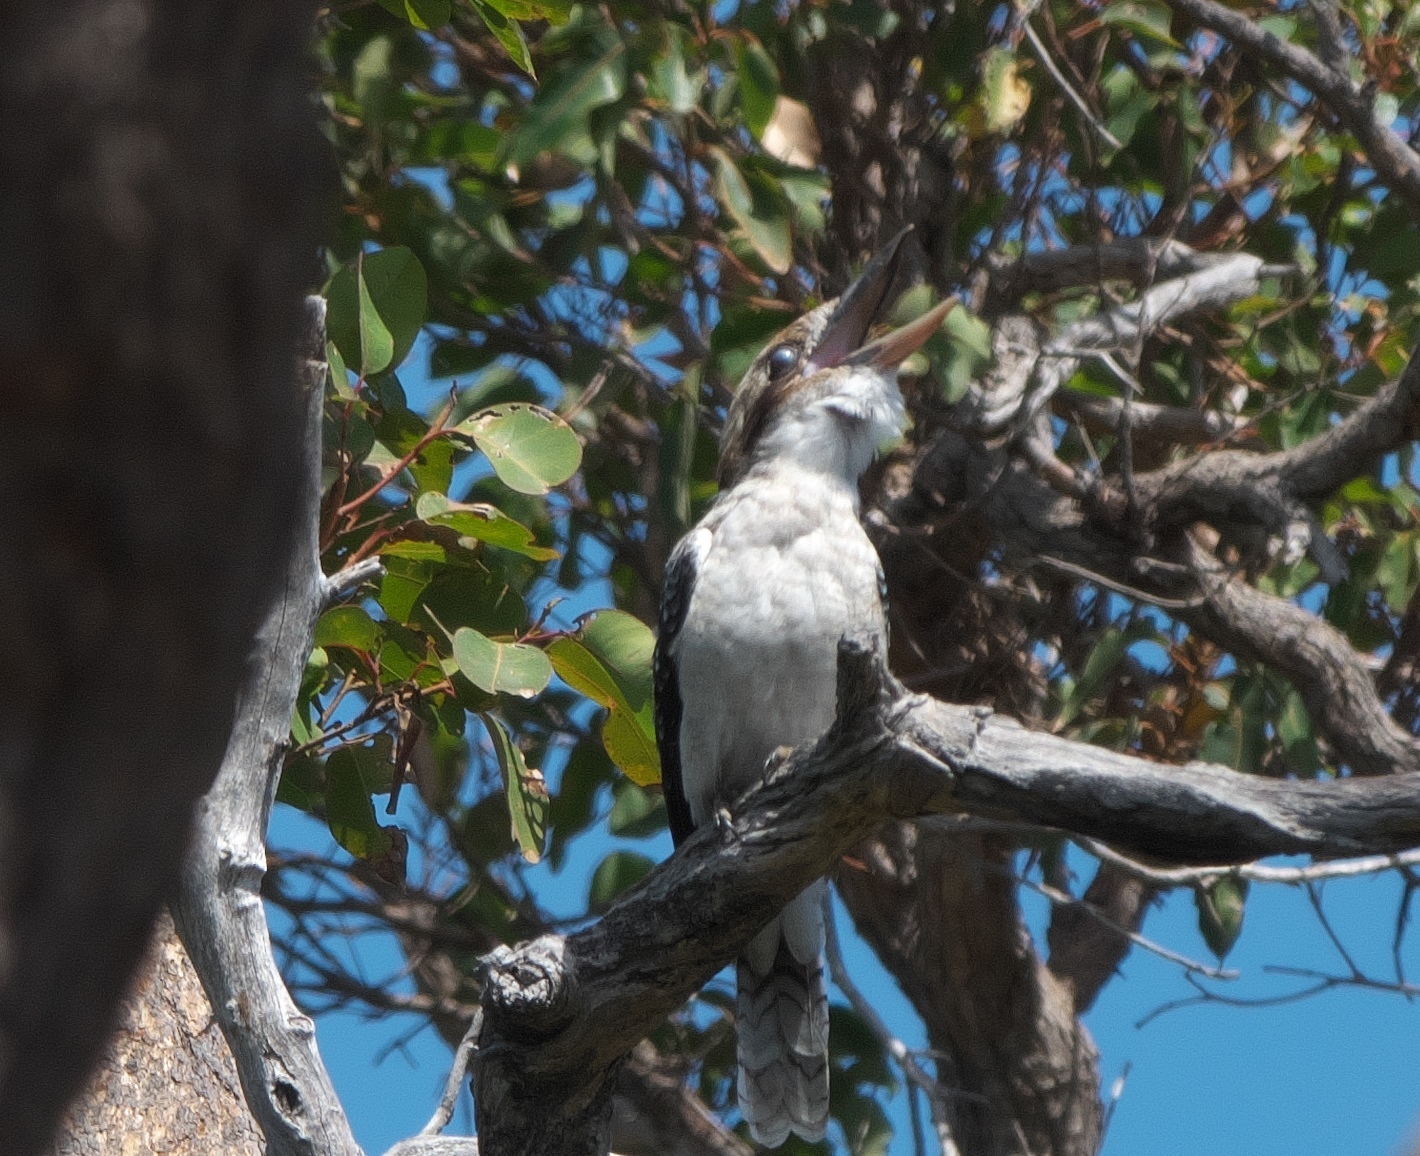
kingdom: Animalia
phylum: Chordata
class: Aves
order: Coraciiformes
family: Alcedinidae
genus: Dacelo
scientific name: Dacelo novaeguineae
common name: Laughing kookaburra
